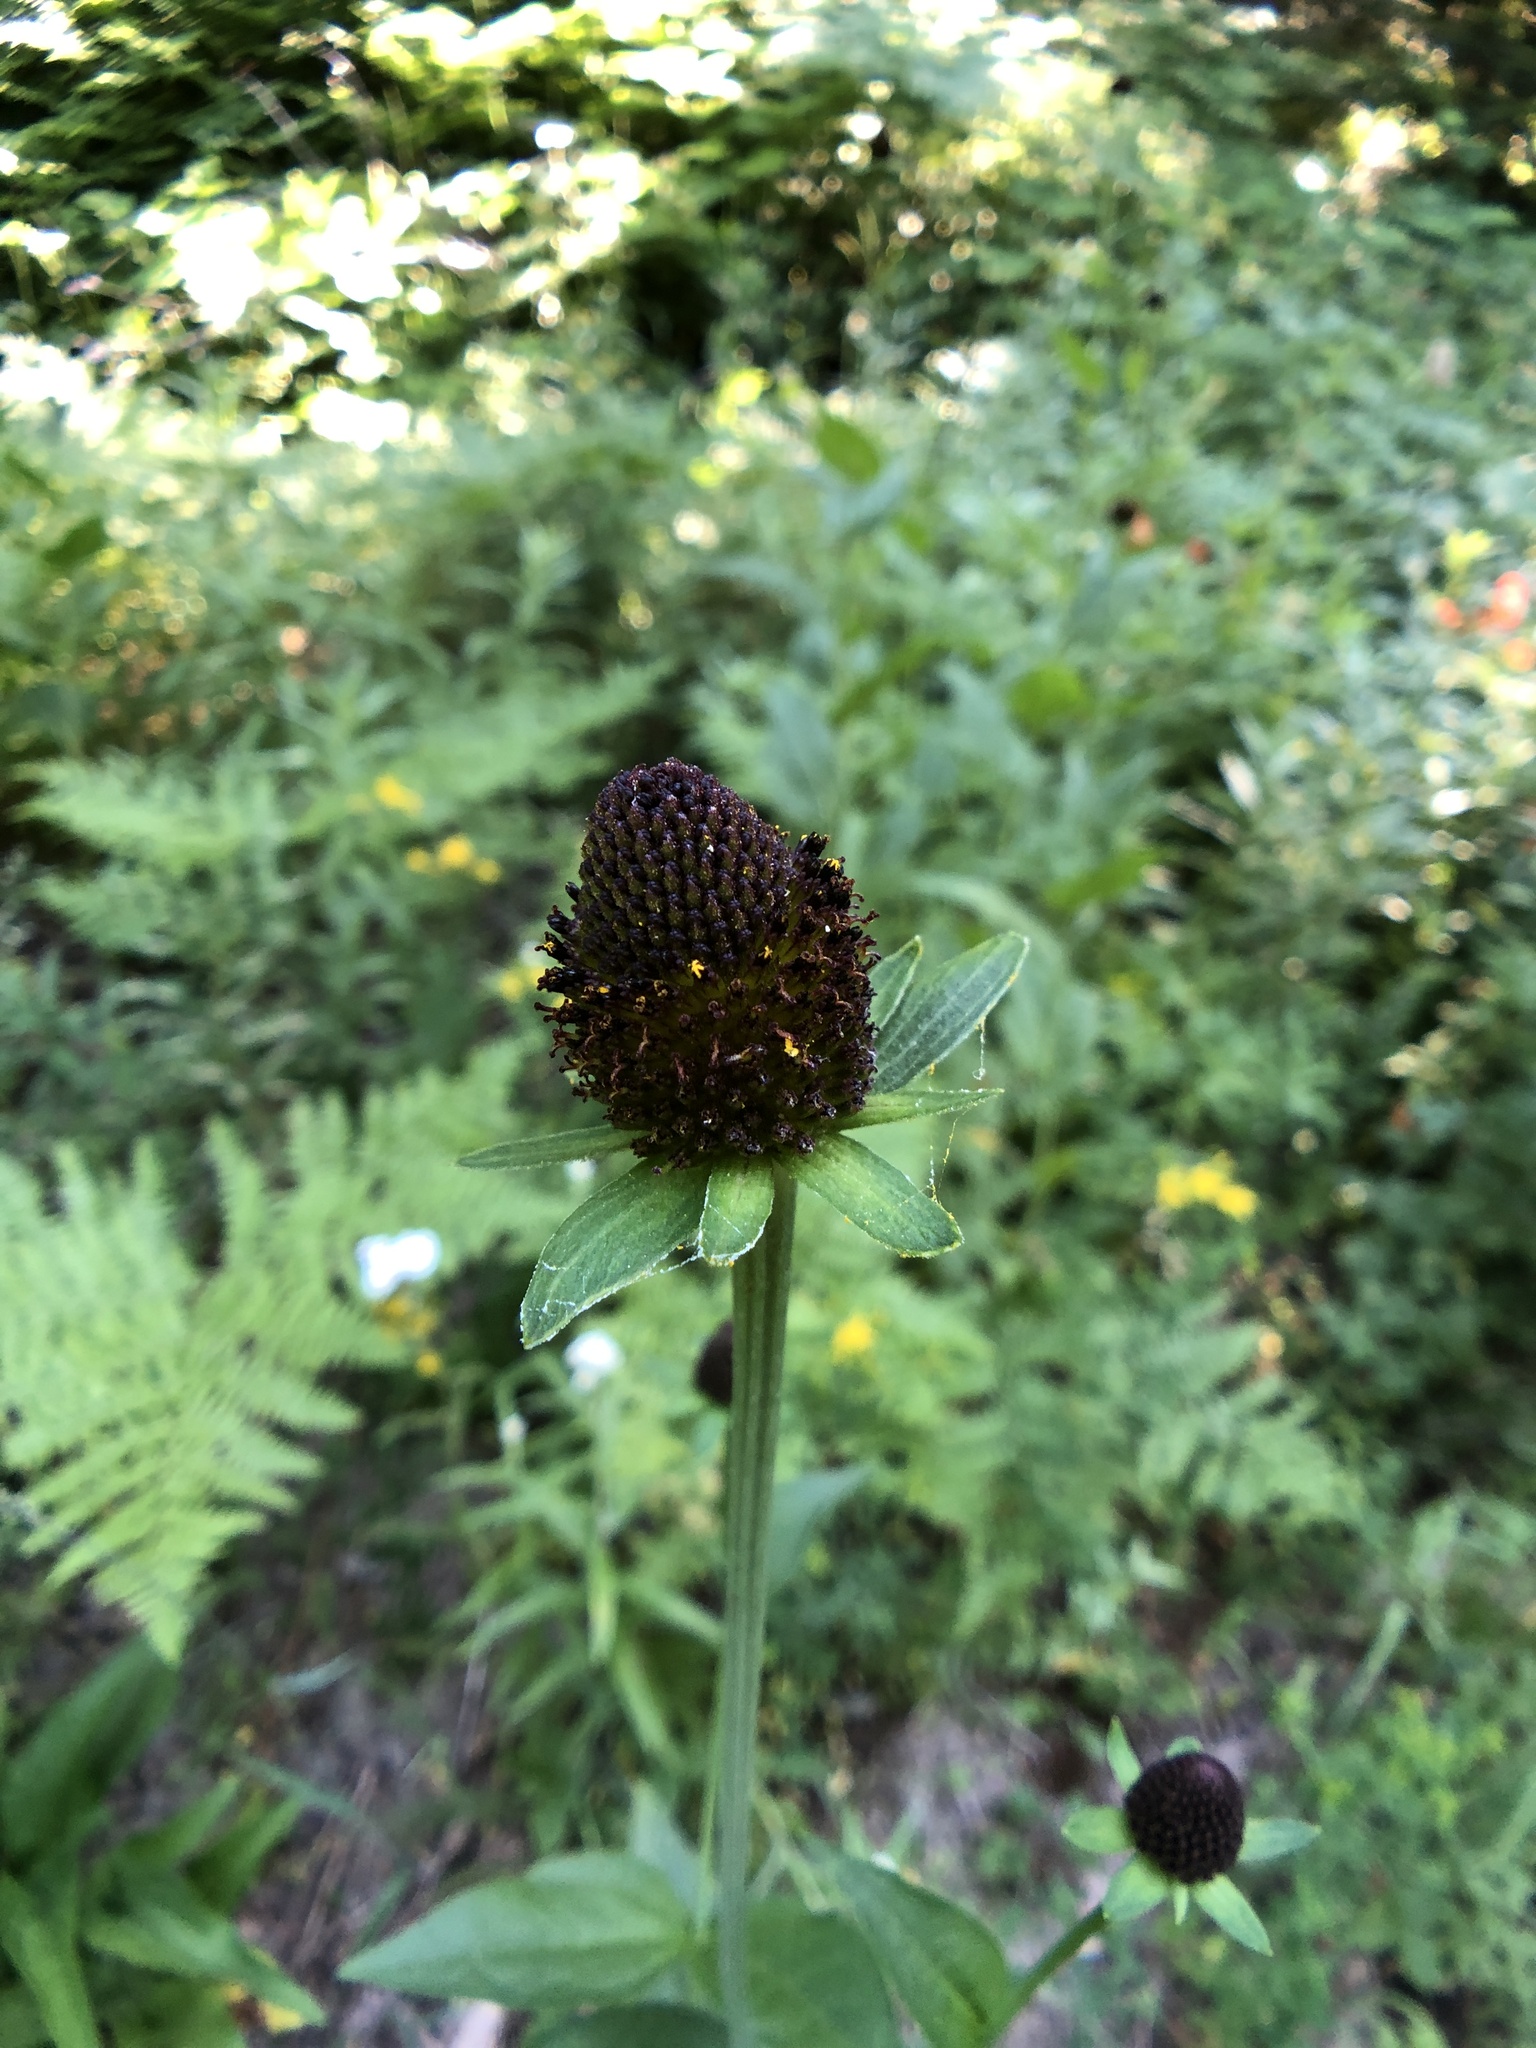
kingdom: Plantae
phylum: Tracheophyta
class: Magnoliopsida
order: Asterales
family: Asteraceae
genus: Rudbeckia
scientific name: Rudbeckia occidentalis
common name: Western coneflower
